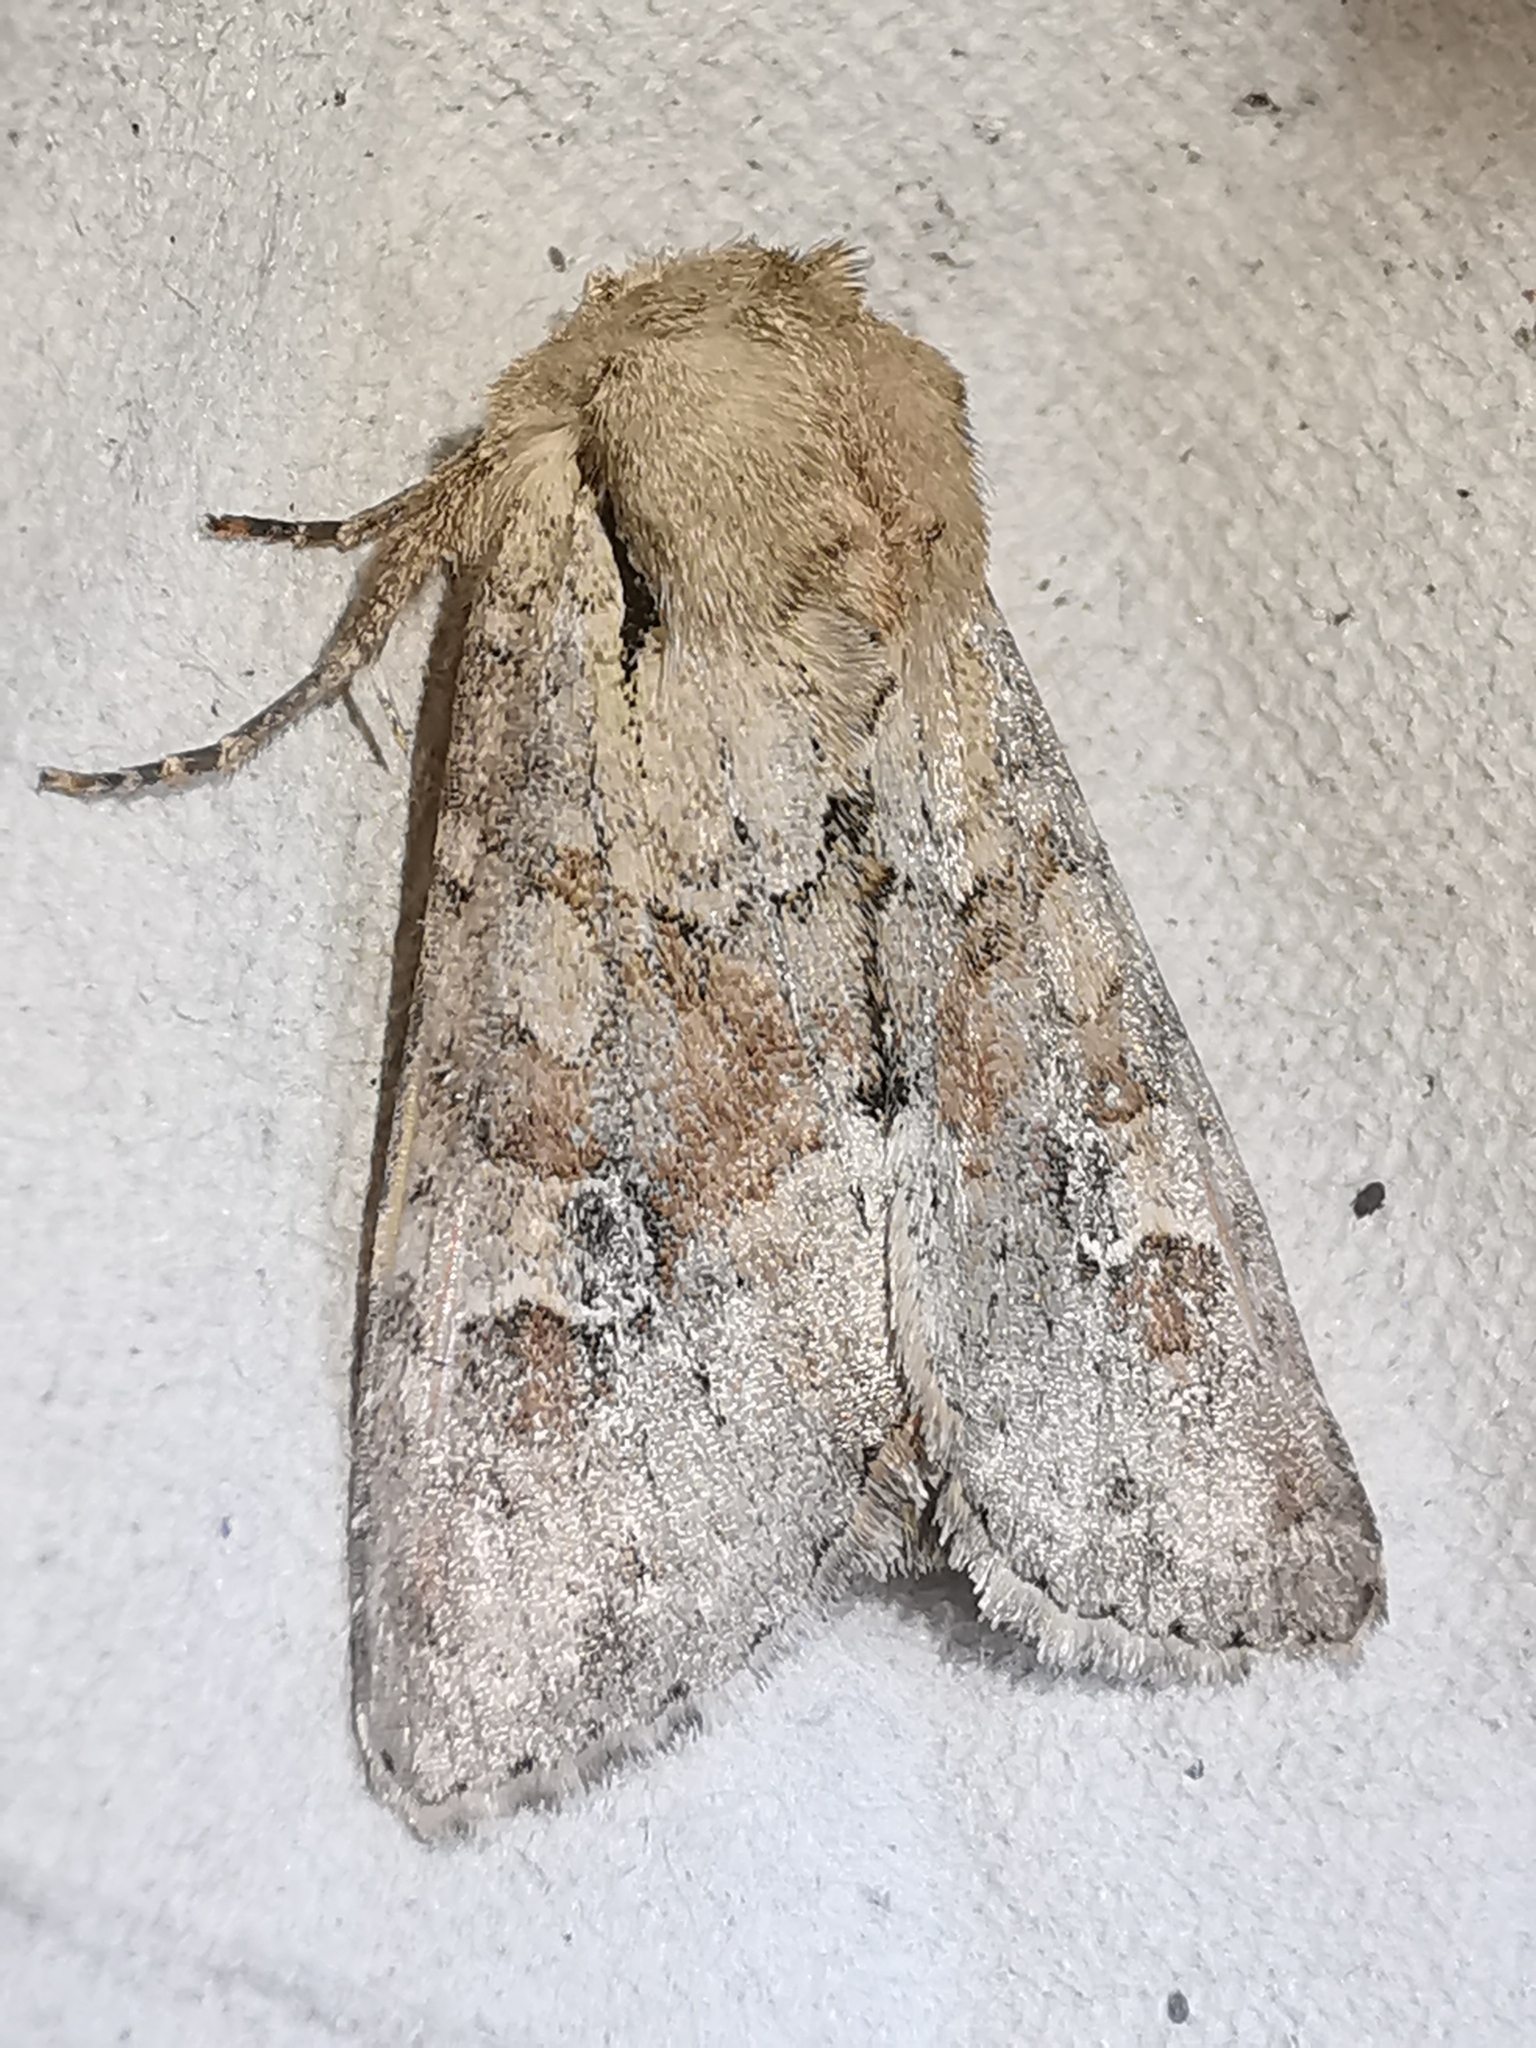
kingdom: Animalia
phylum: Arthropoda
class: Insecta
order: Lepidoptera
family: Noctuidae
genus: Apamea
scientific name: Apamea sordens
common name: Rustic shoulder-knot
